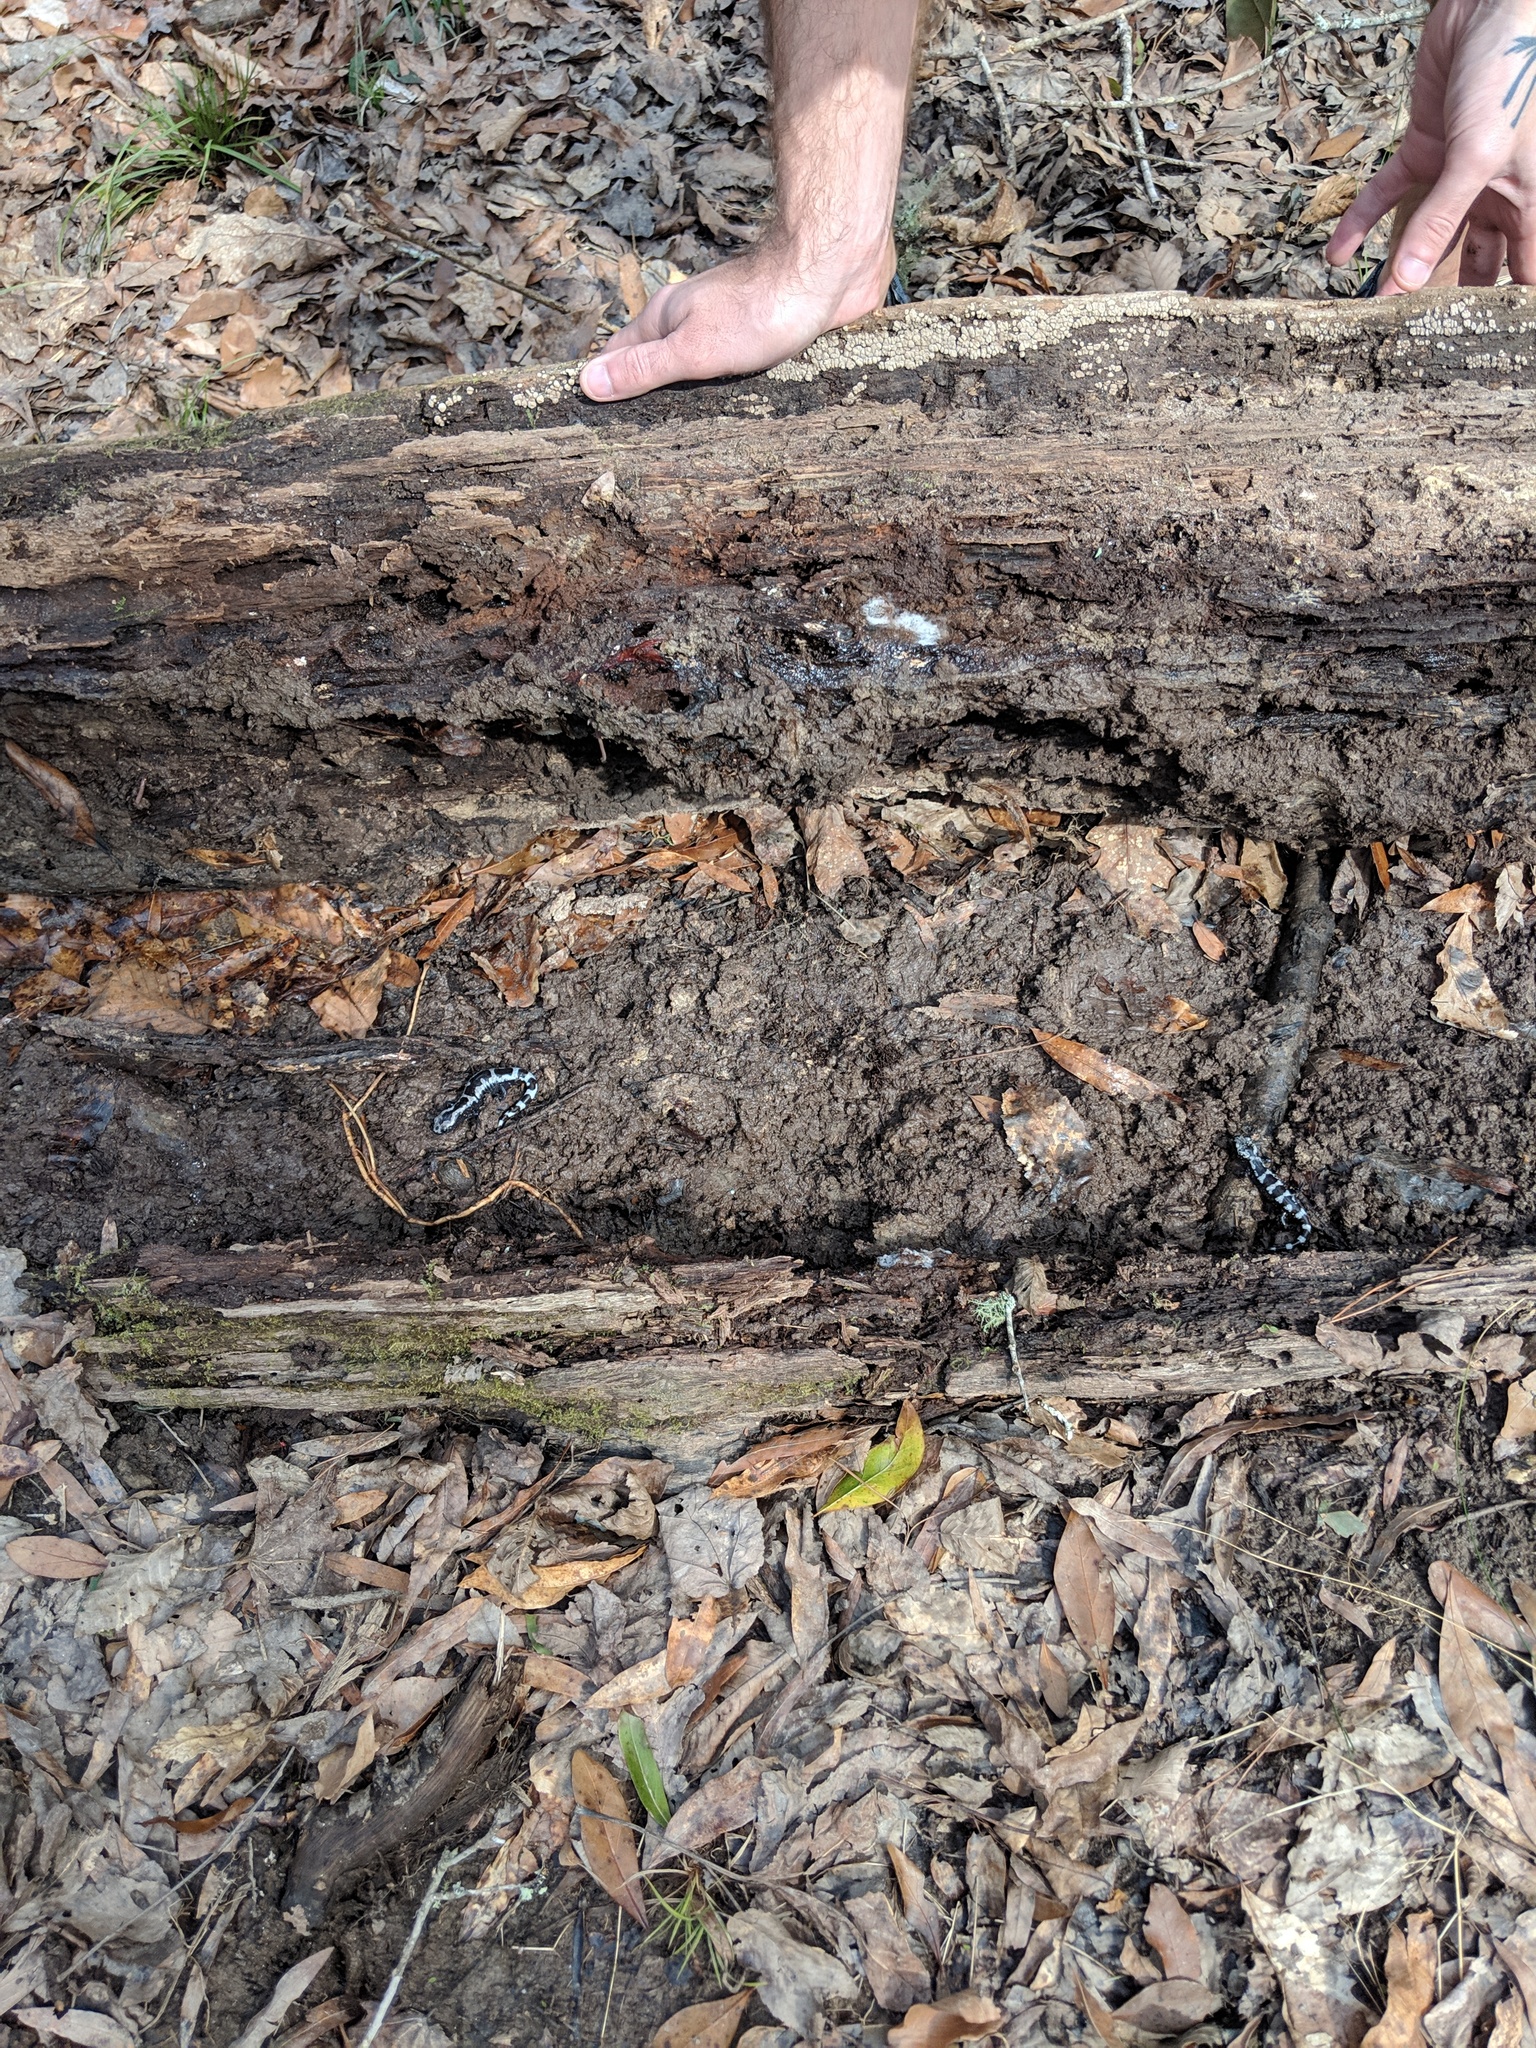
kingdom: Animalia
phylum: Chordata
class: Amphibia
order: Caudata
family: Ambystomatidae
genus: Ambystoma
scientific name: Ambystoma opacum
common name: Marbled salamander
